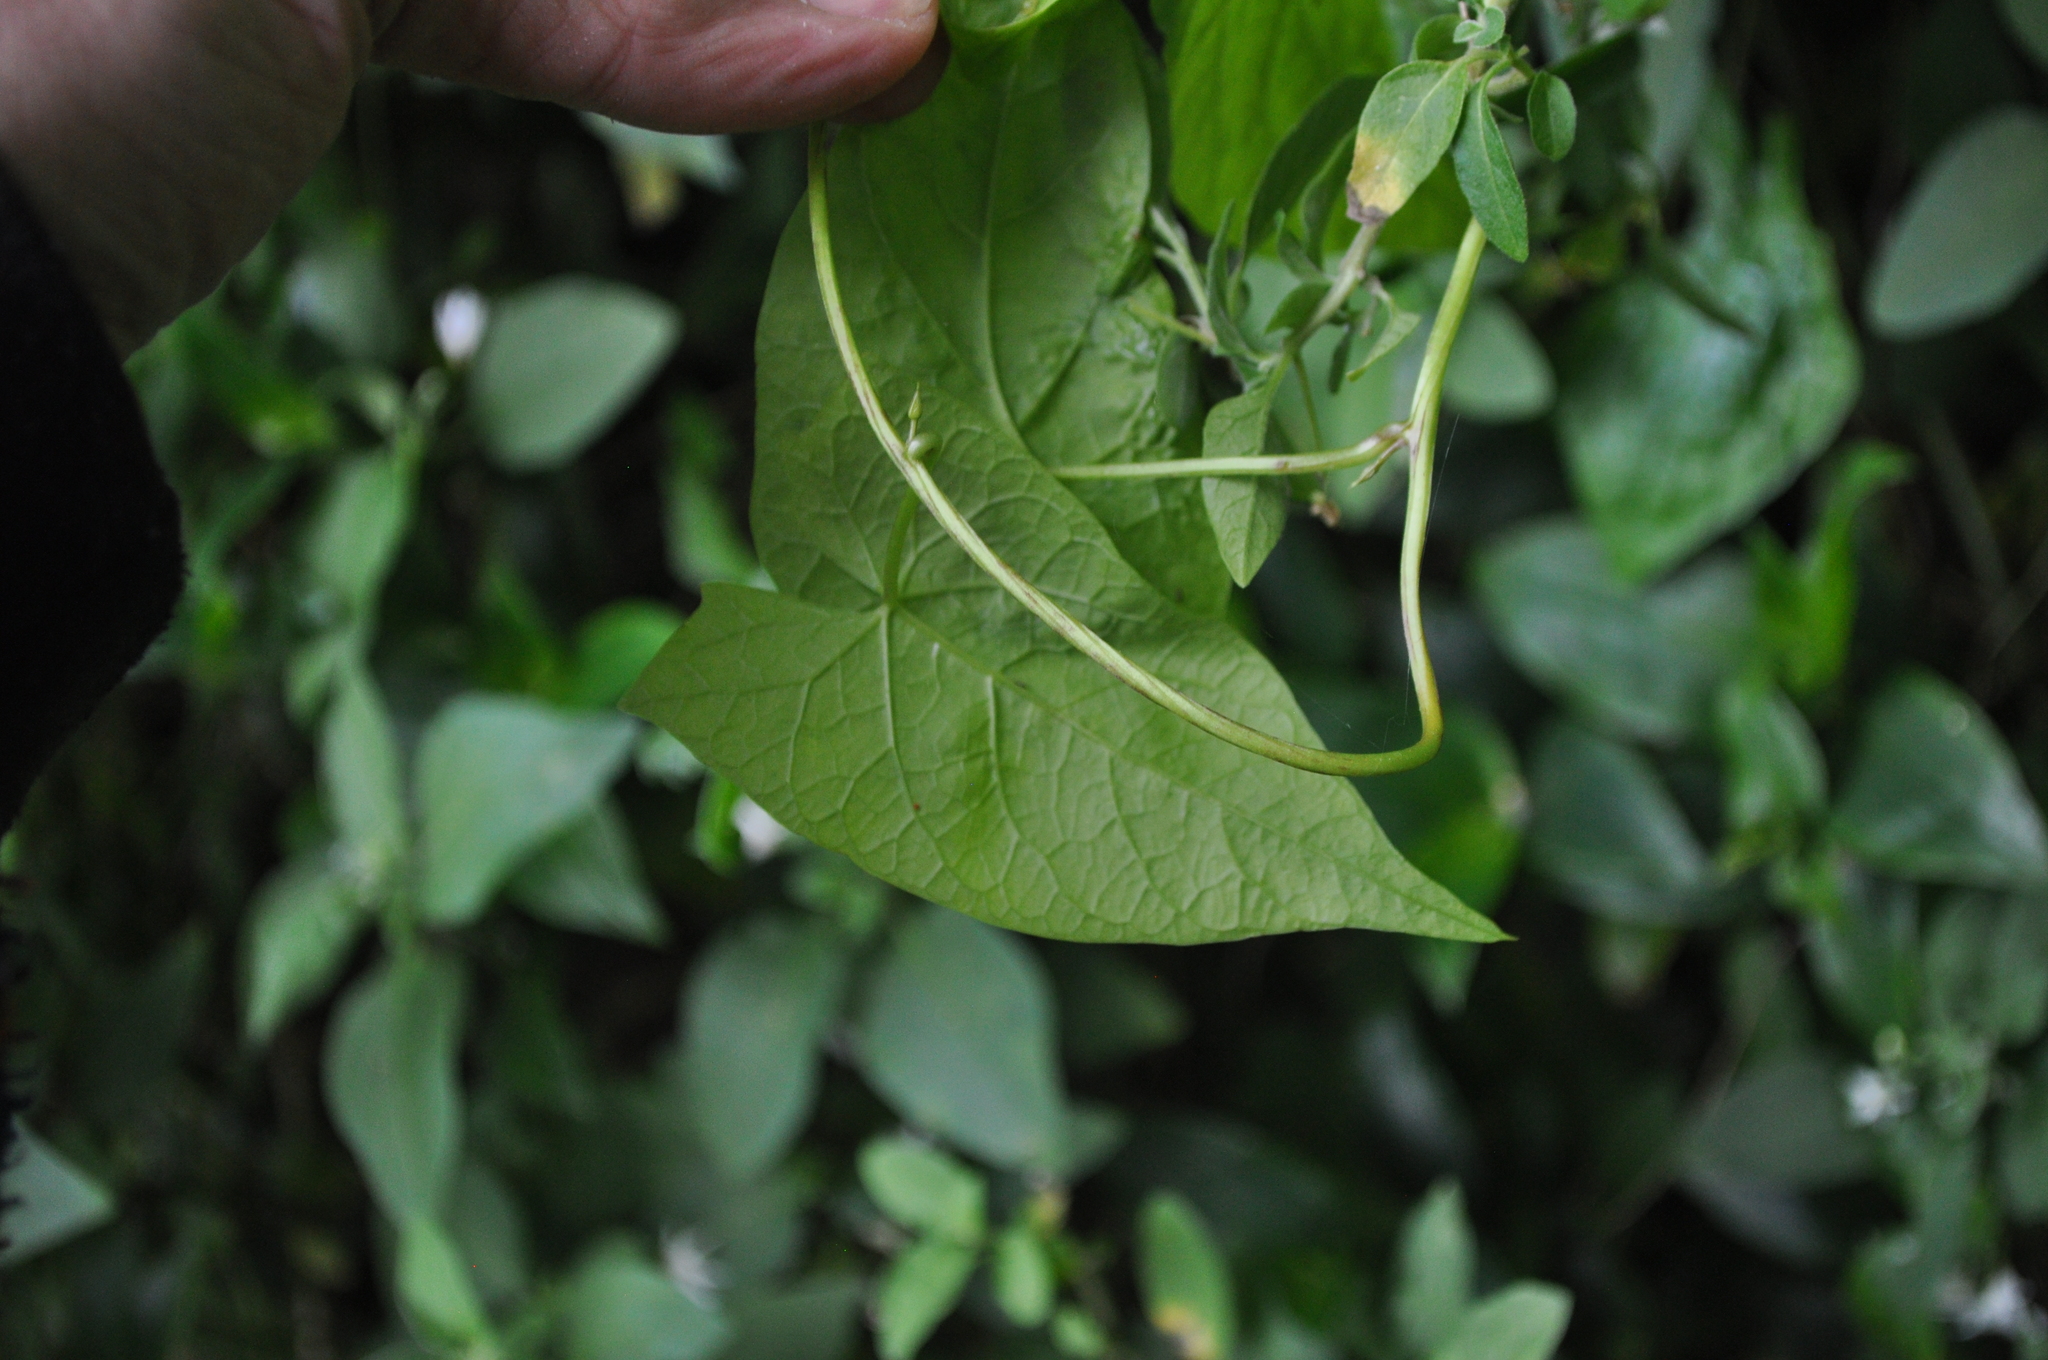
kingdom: Plantae
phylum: Tracheophyta
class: Magnoliopsida
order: Solanales
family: Convolvulaceae
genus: Calystegia
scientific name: Calystegia silvatica
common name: Large bindweed
